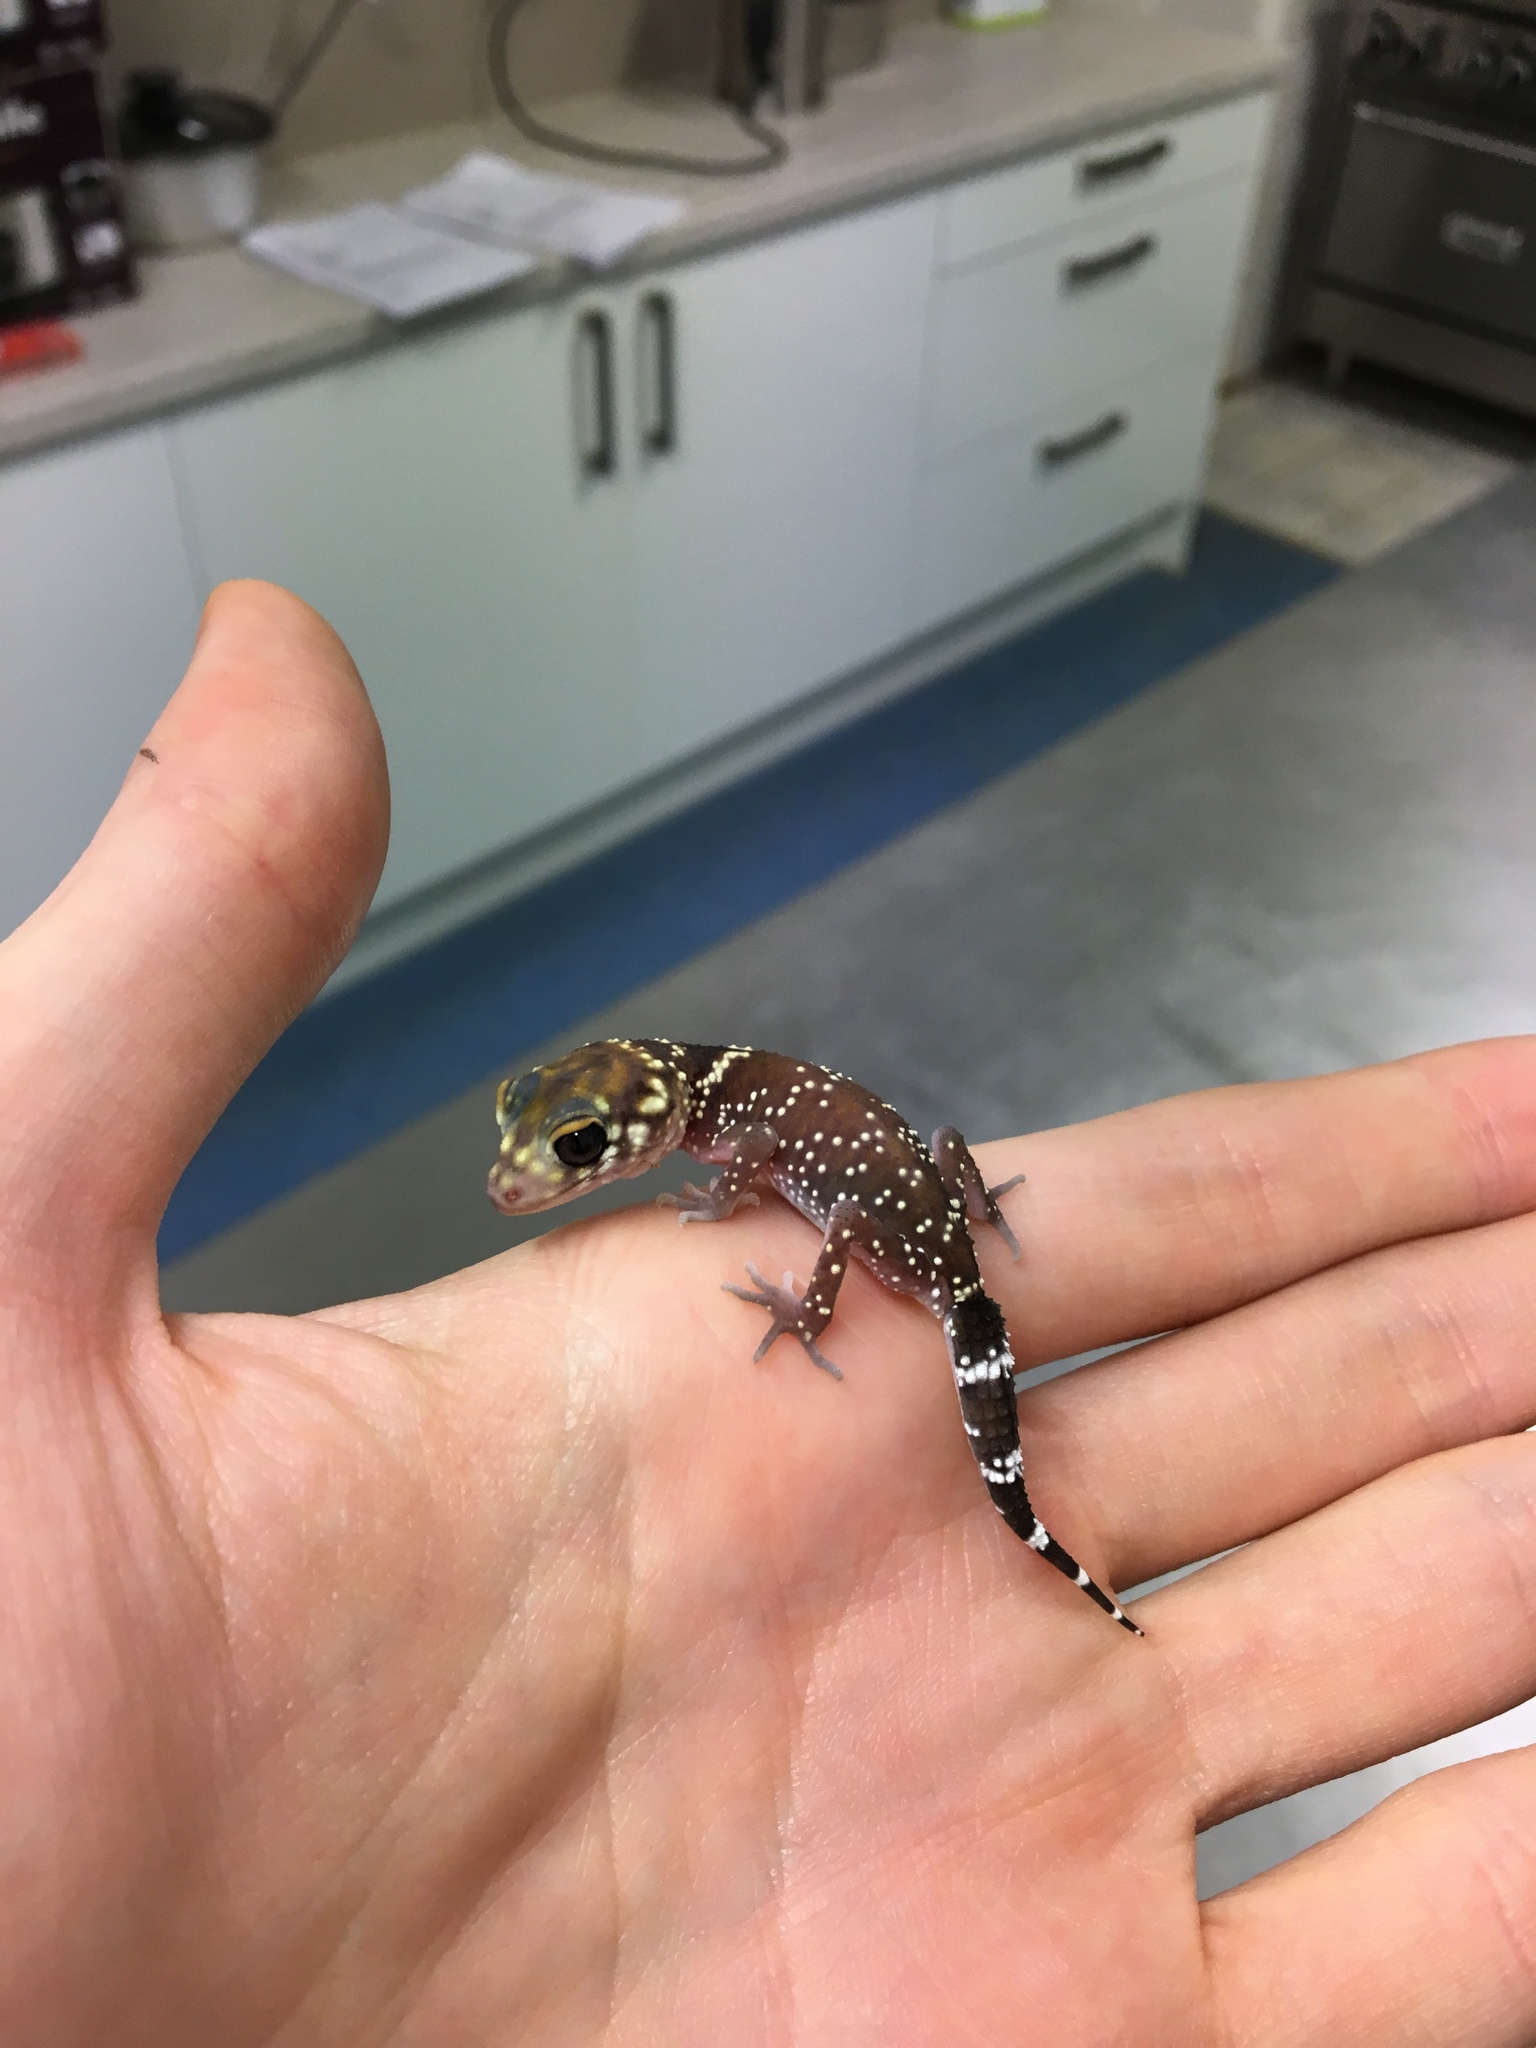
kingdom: Animalia
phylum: Chordata
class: Squamata
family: Carphodactylidae
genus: Underwoodisaurus
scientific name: Underwoodisaurus milii
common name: Barking gecko
